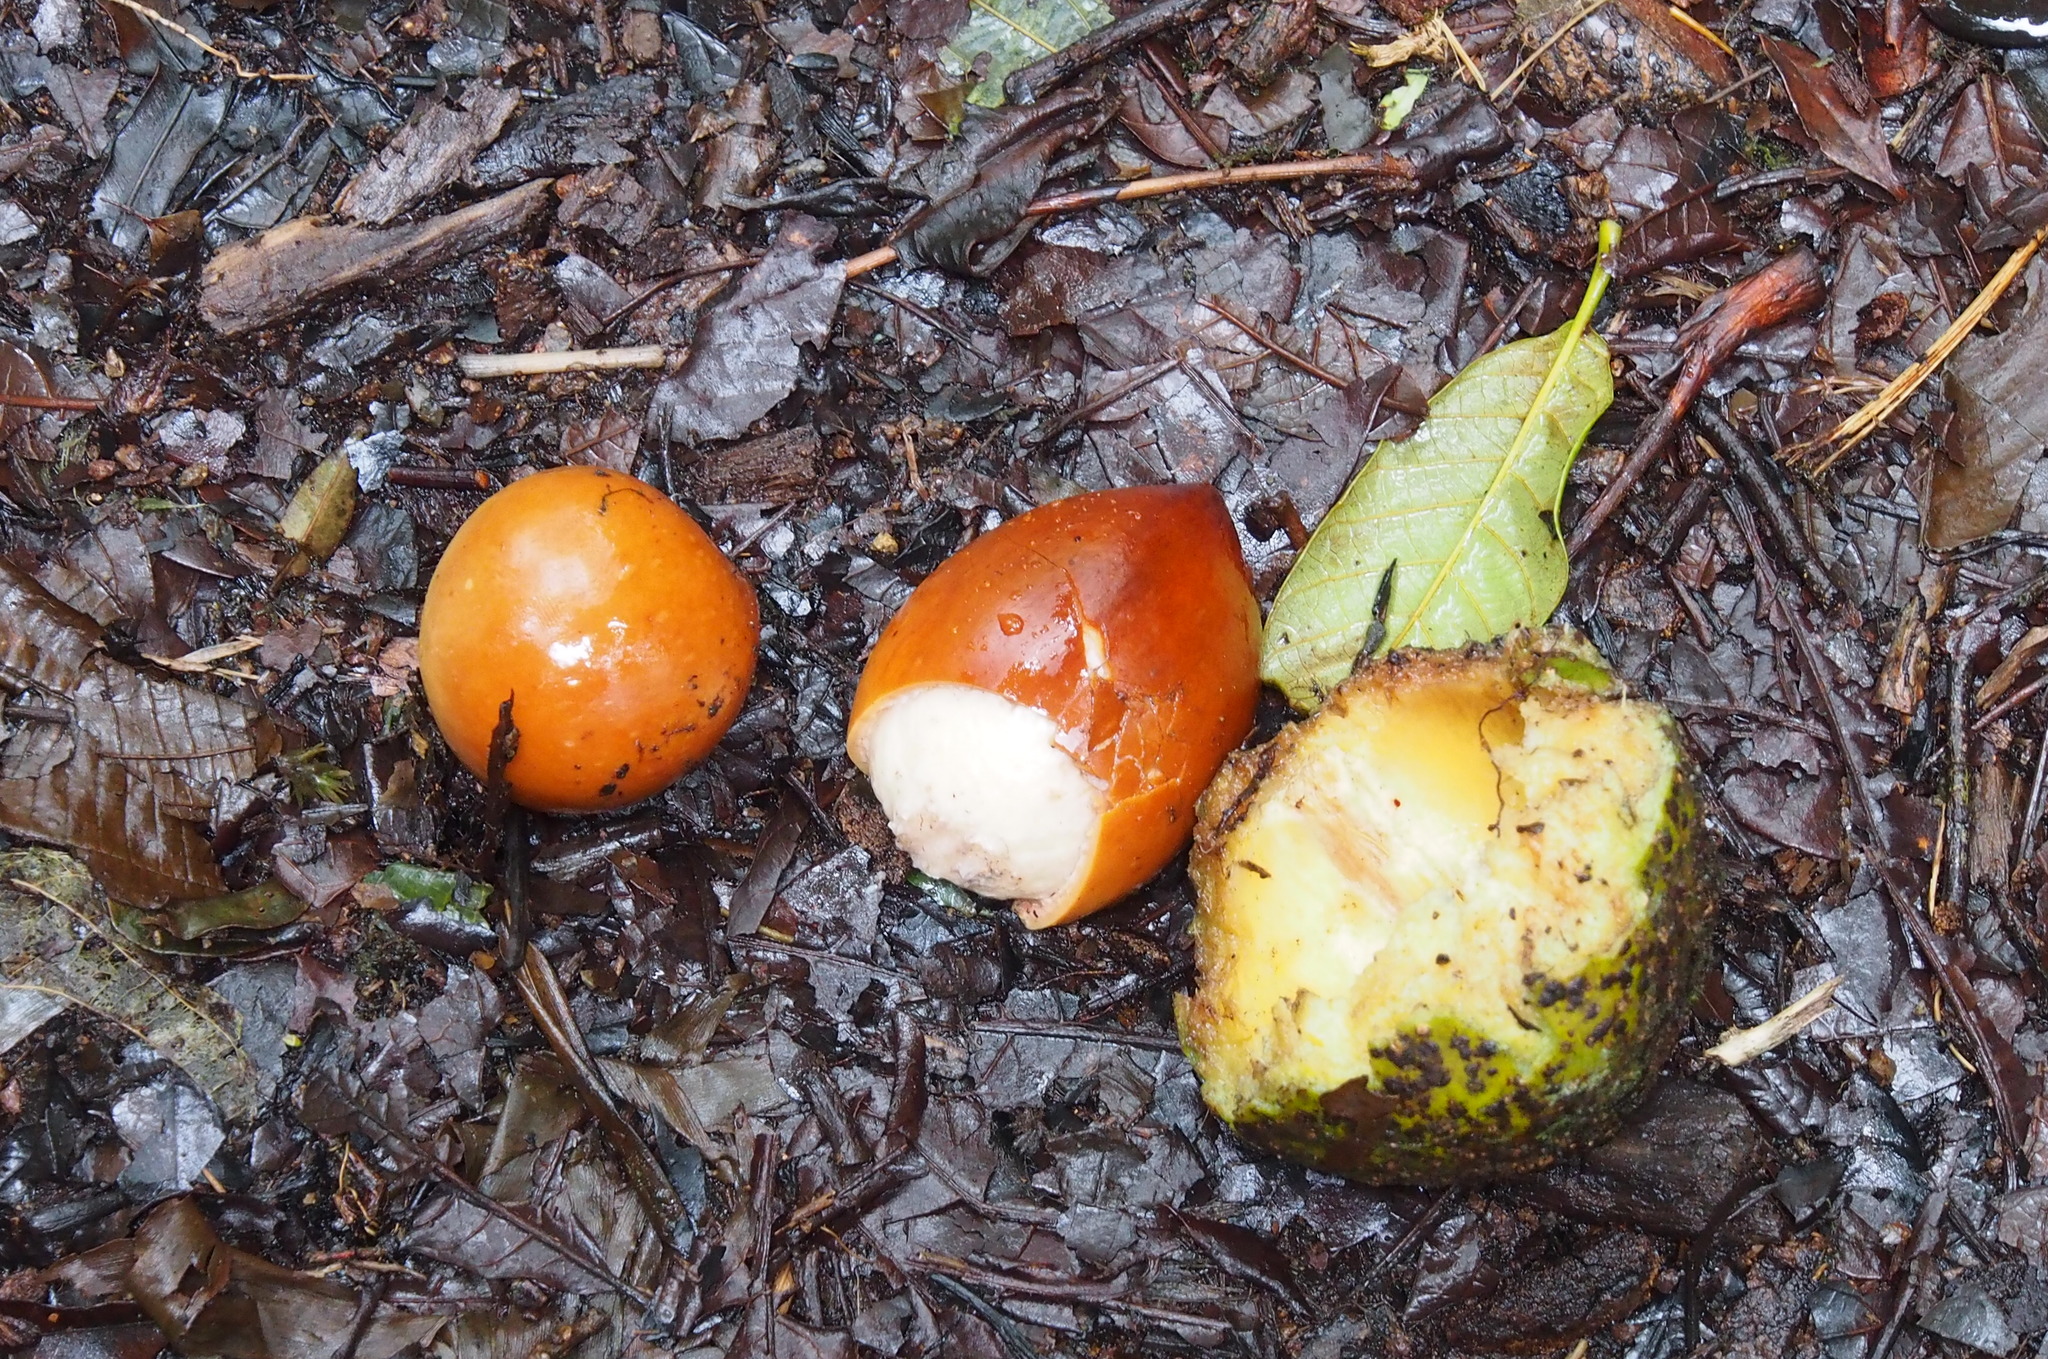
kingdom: Plantae
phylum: Tracheophyta
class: Magnoliopsida
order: Ericales
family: Sapotaceae
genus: Pouteria
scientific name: Pouteria
